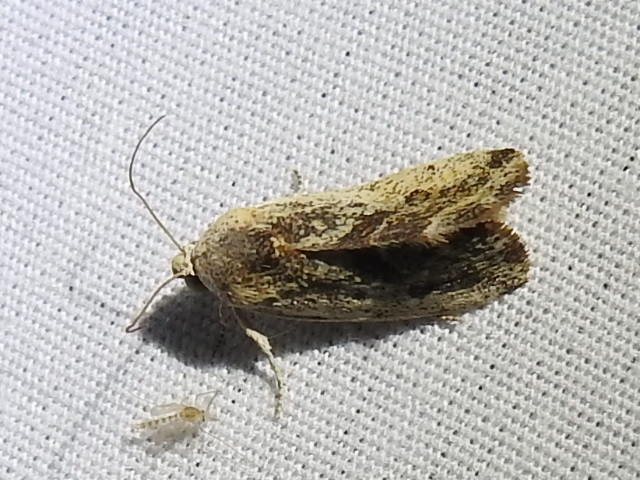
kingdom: Animalia
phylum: Arthropoda
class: Insecta
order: Lepidoptera
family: Noctuidae
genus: Acontia
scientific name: Acontia fasciatella
